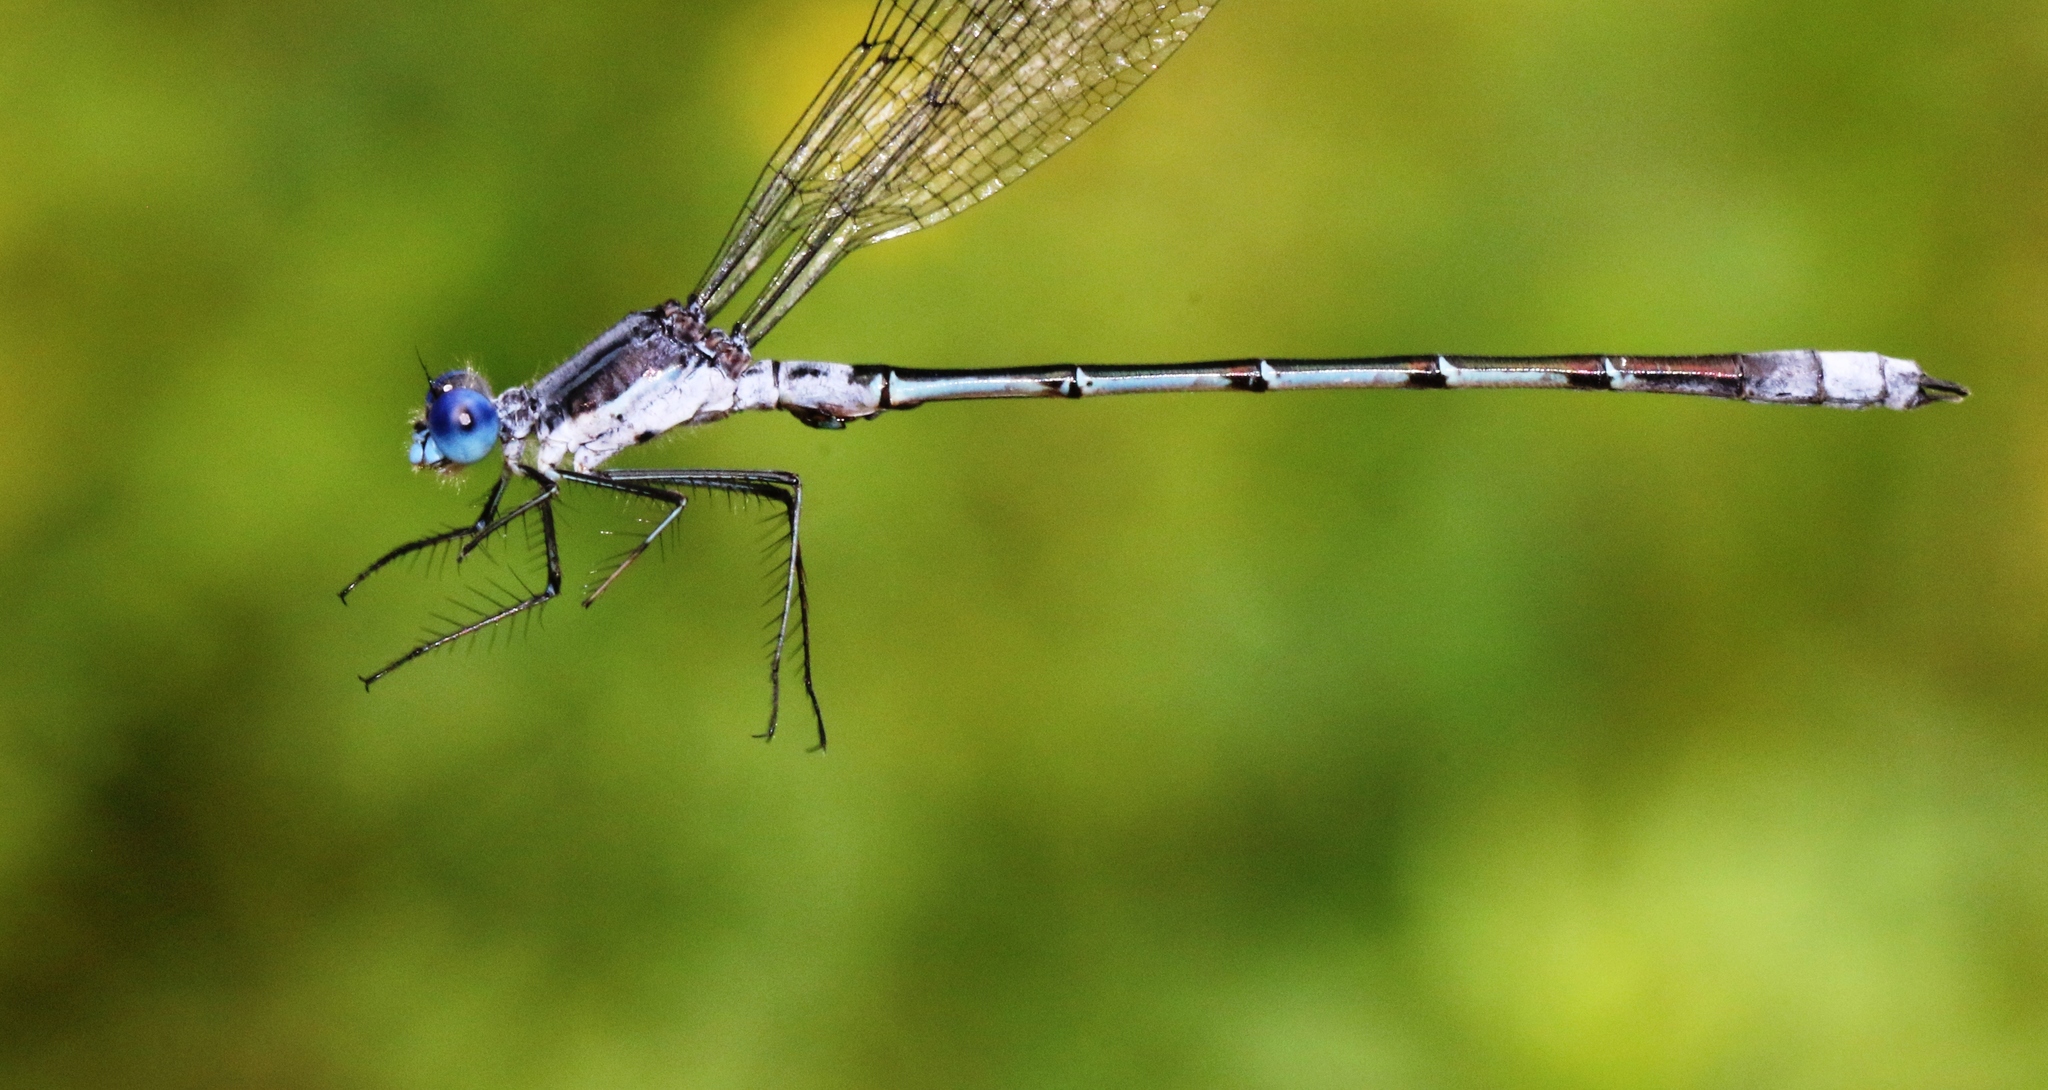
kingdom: Animalia
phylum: Arthropoda
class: Insecta
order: Odonata
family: Lestidae
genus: Lestes
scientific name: Lestes forcipatus
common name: Sweetflag spreadwing
